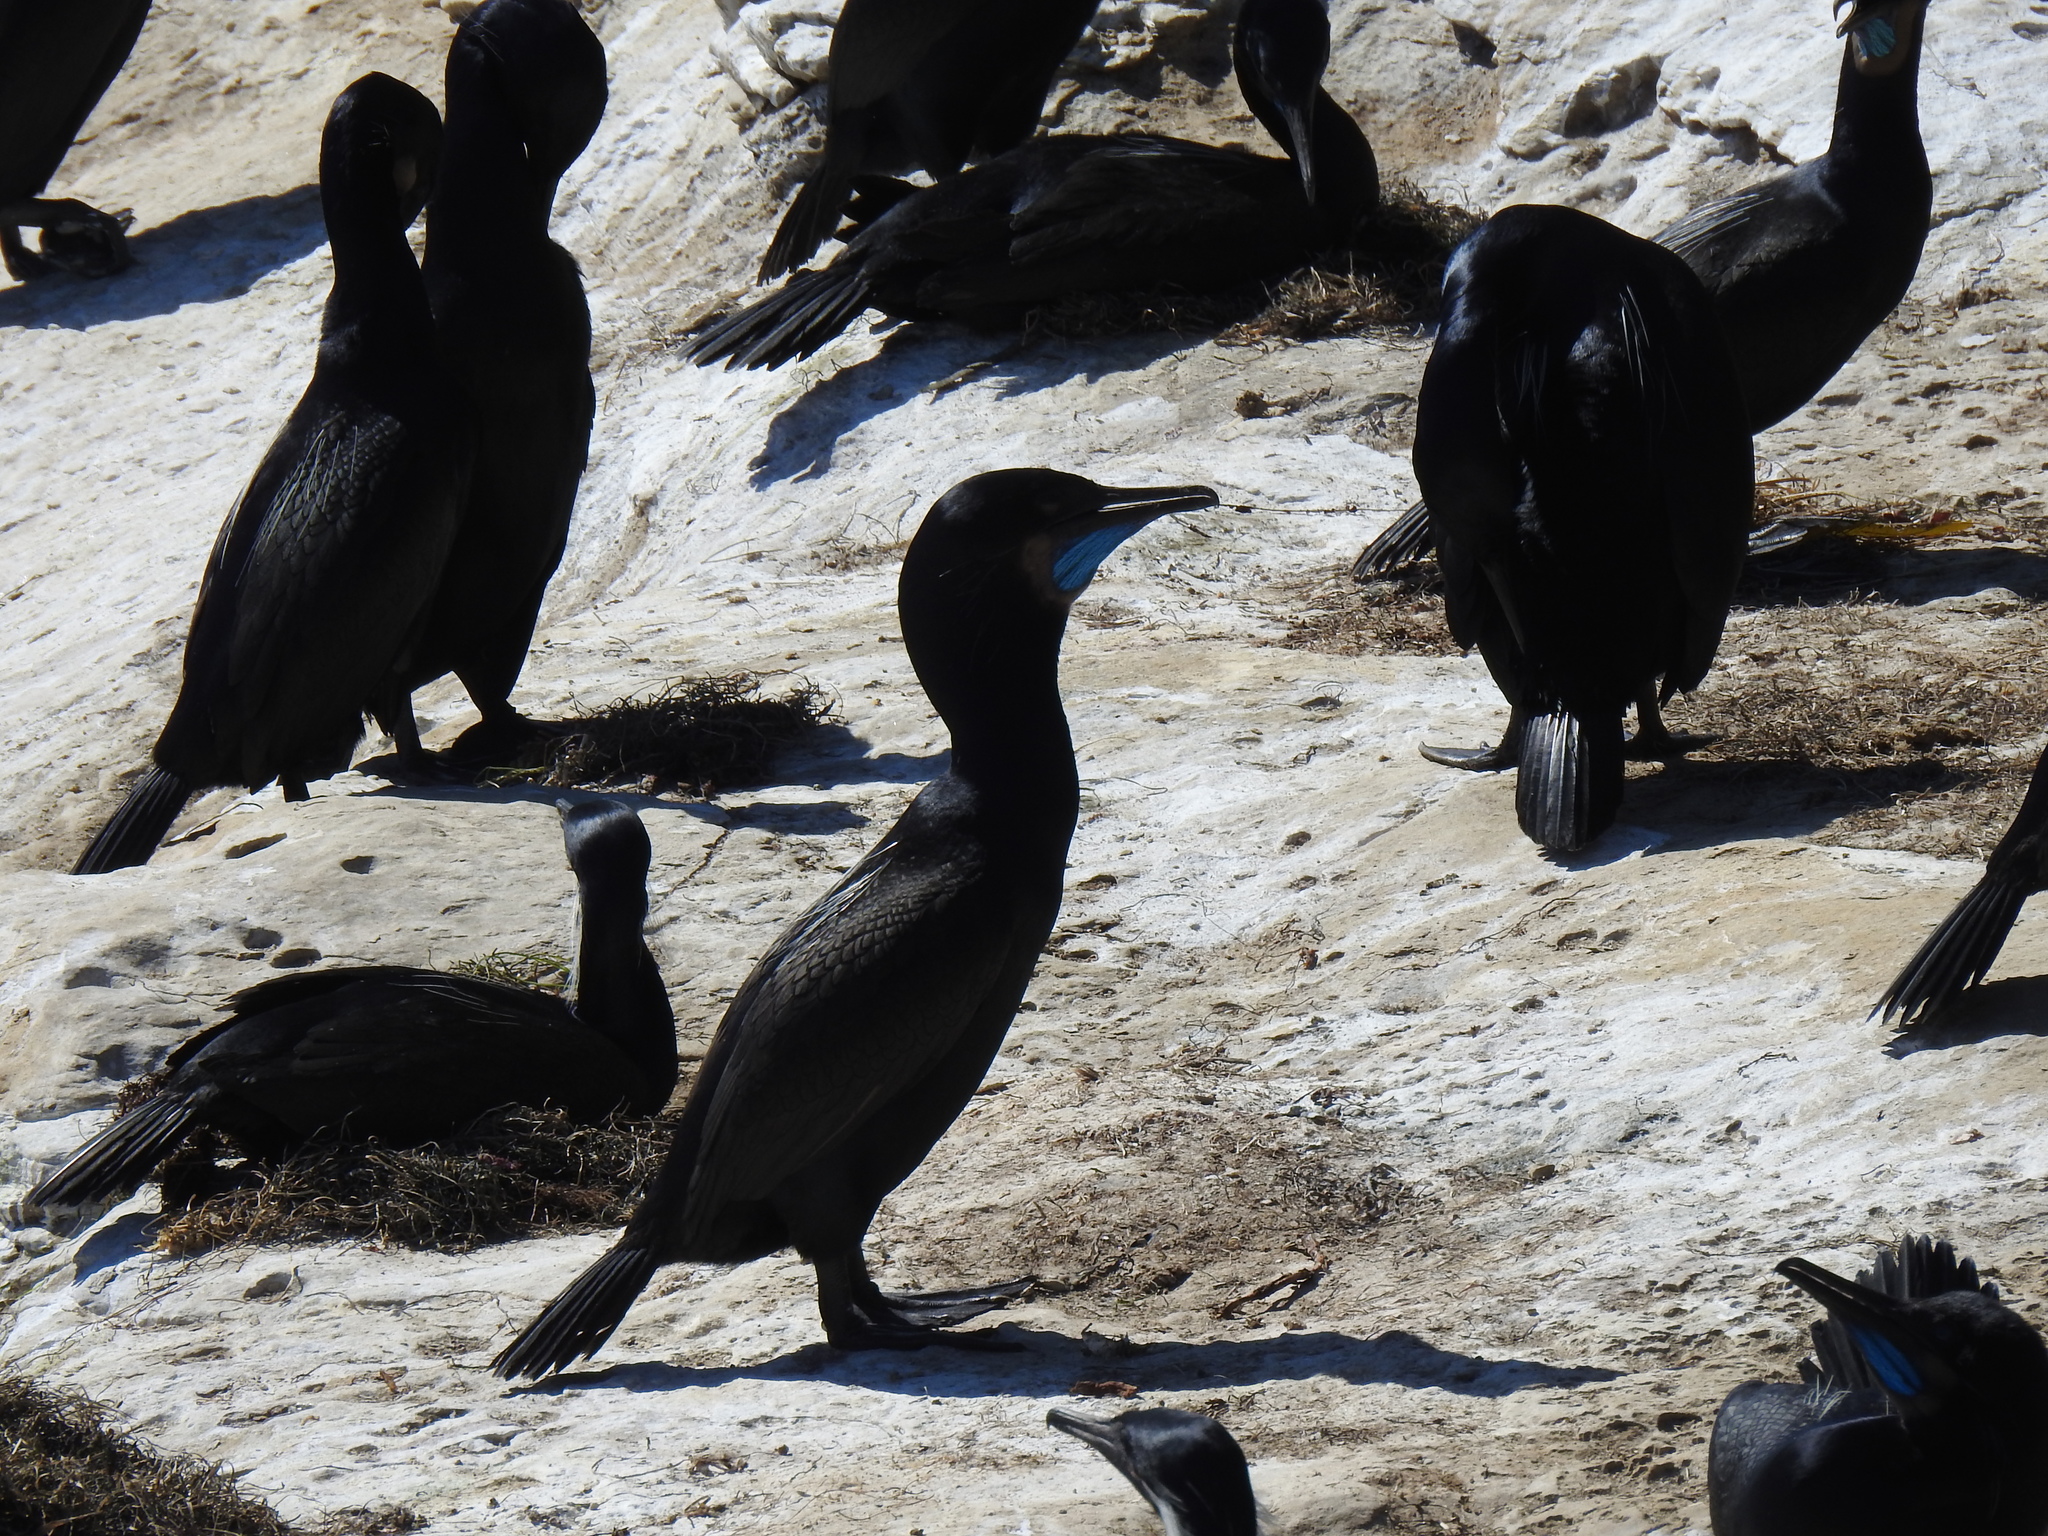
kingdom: Animalia
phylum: Chordata
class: Aves
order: Suliformes
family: Phalacrocoracidae
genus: Urile
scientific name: Urile penicillatus
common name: Brandt's cormorant
